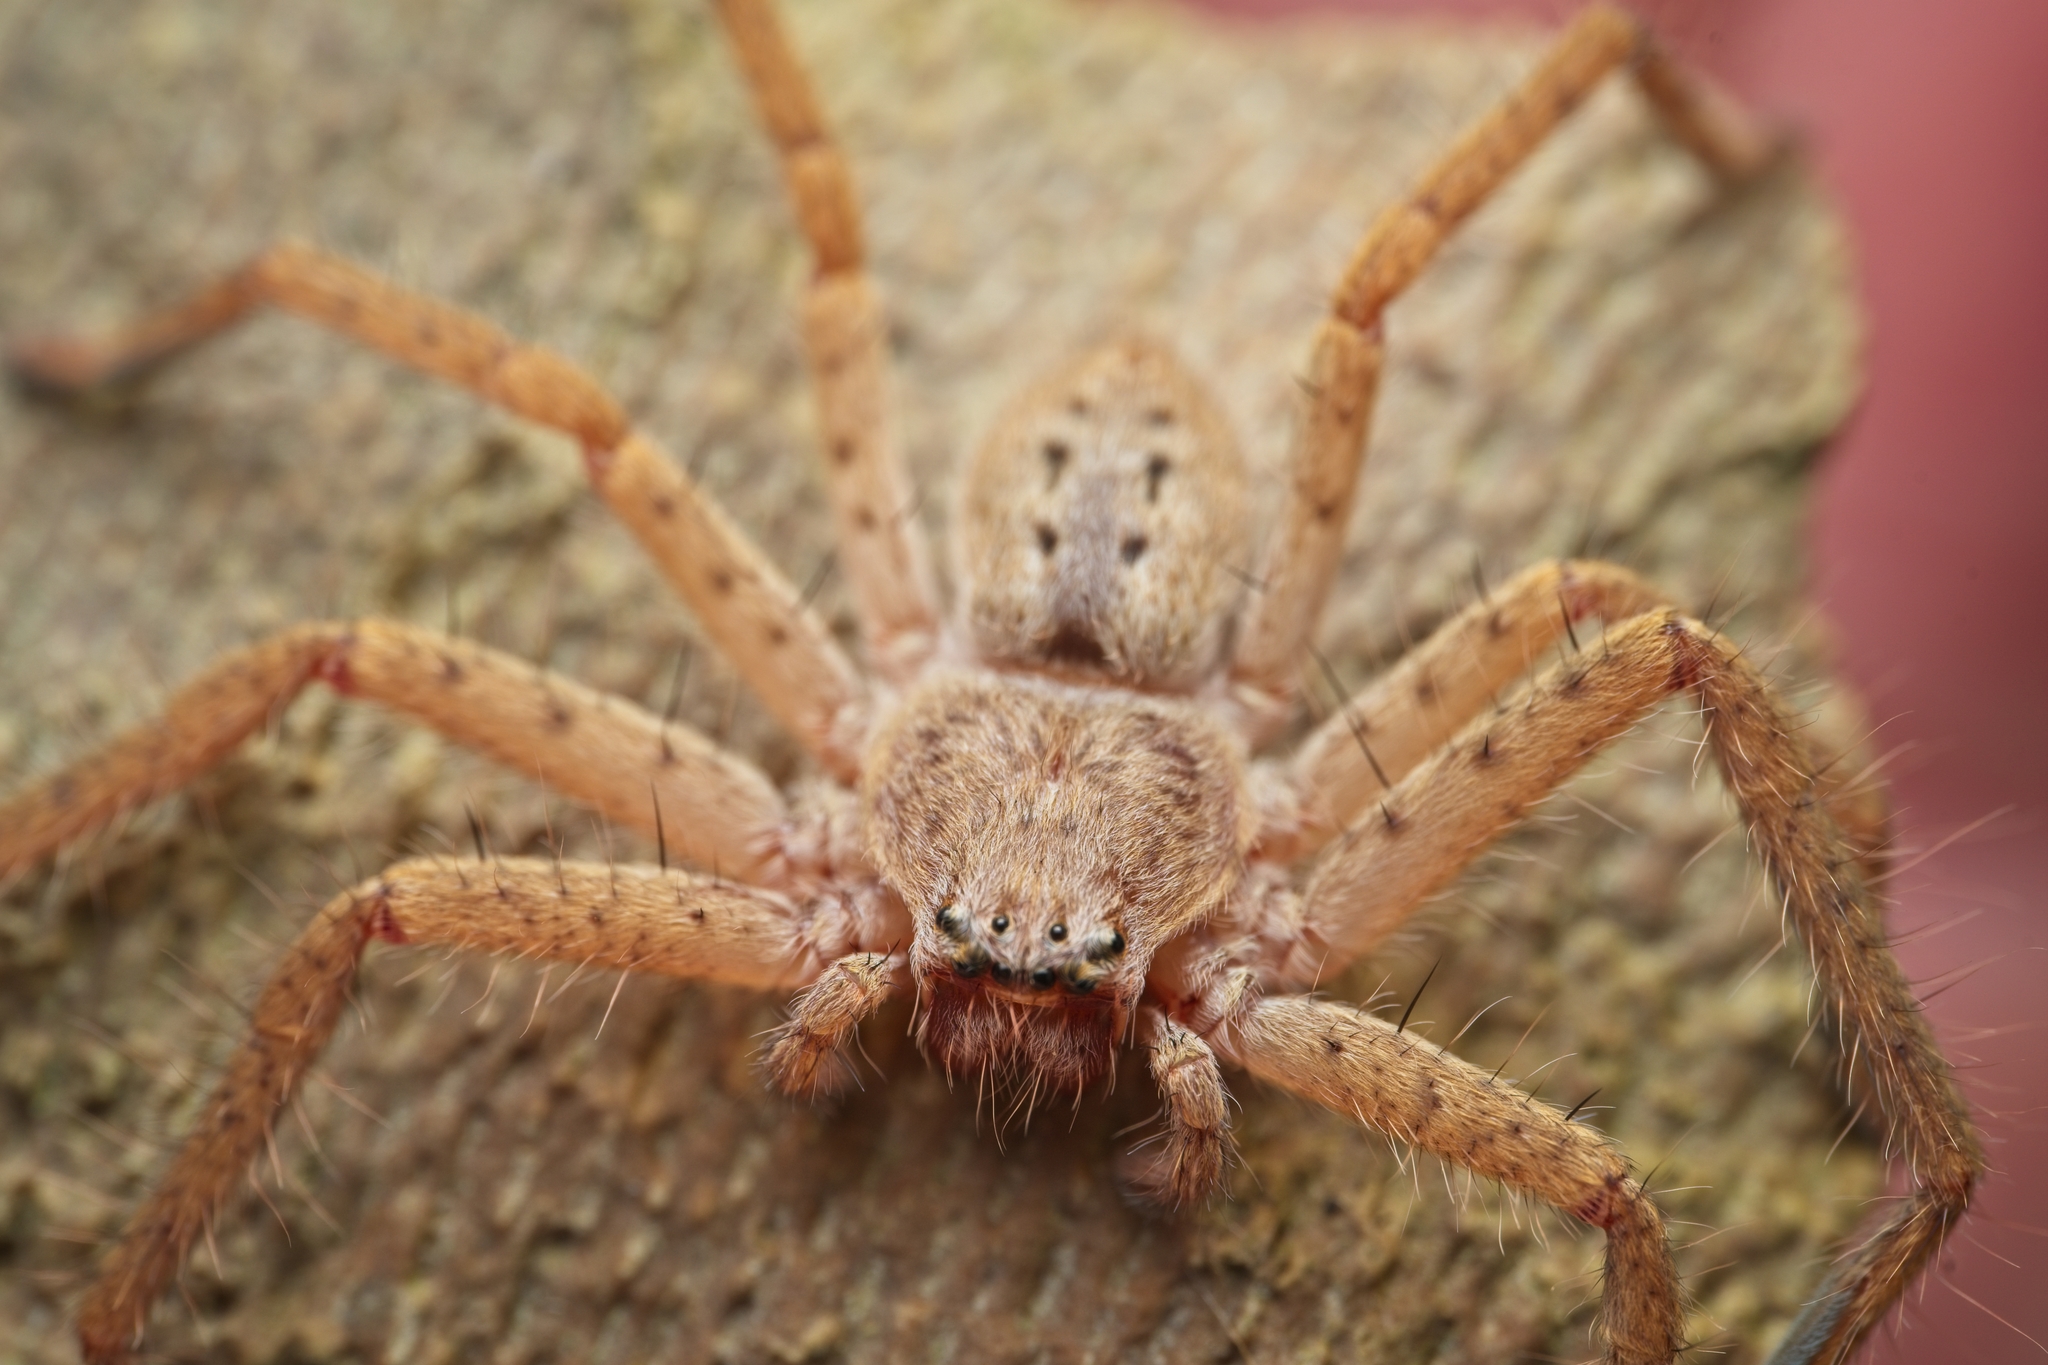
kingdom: Animalia
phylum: Arthropoda
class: Arachnida
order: Araneae
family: Sparassidae
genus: Isopeda
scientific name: Isopeda villosa
